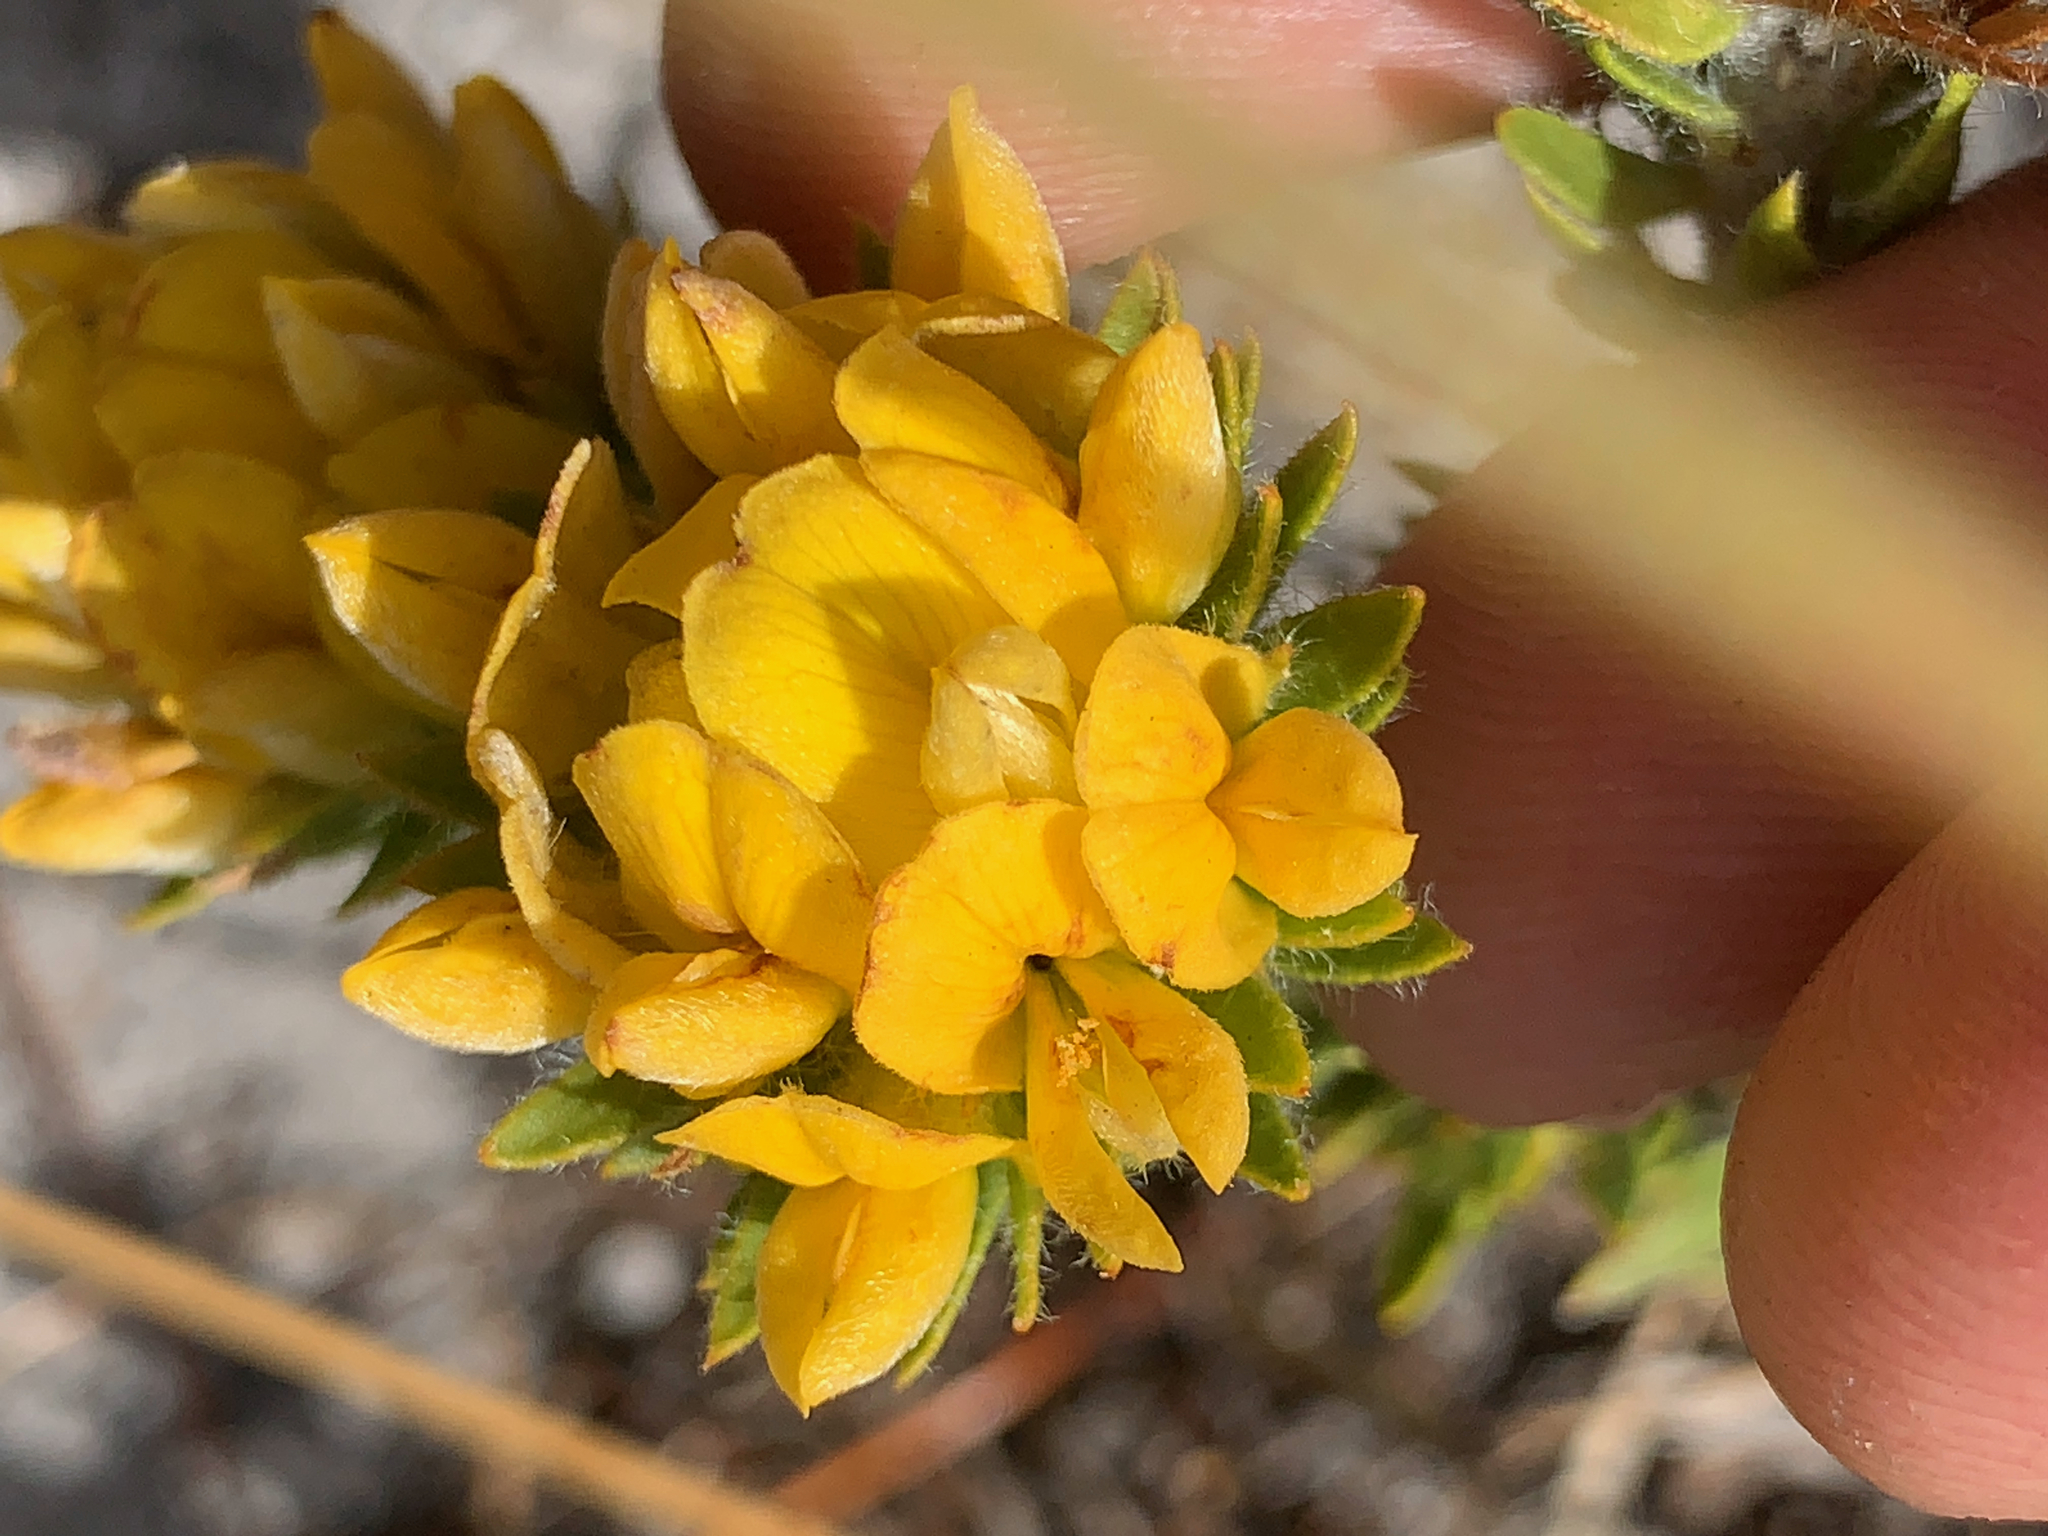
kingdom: Plantae
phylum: Tracheophyta
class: Magnoliopsida
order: Fabales
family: Fabaceae
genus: Aspalathus
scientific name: Aspalathus aspalathoides
